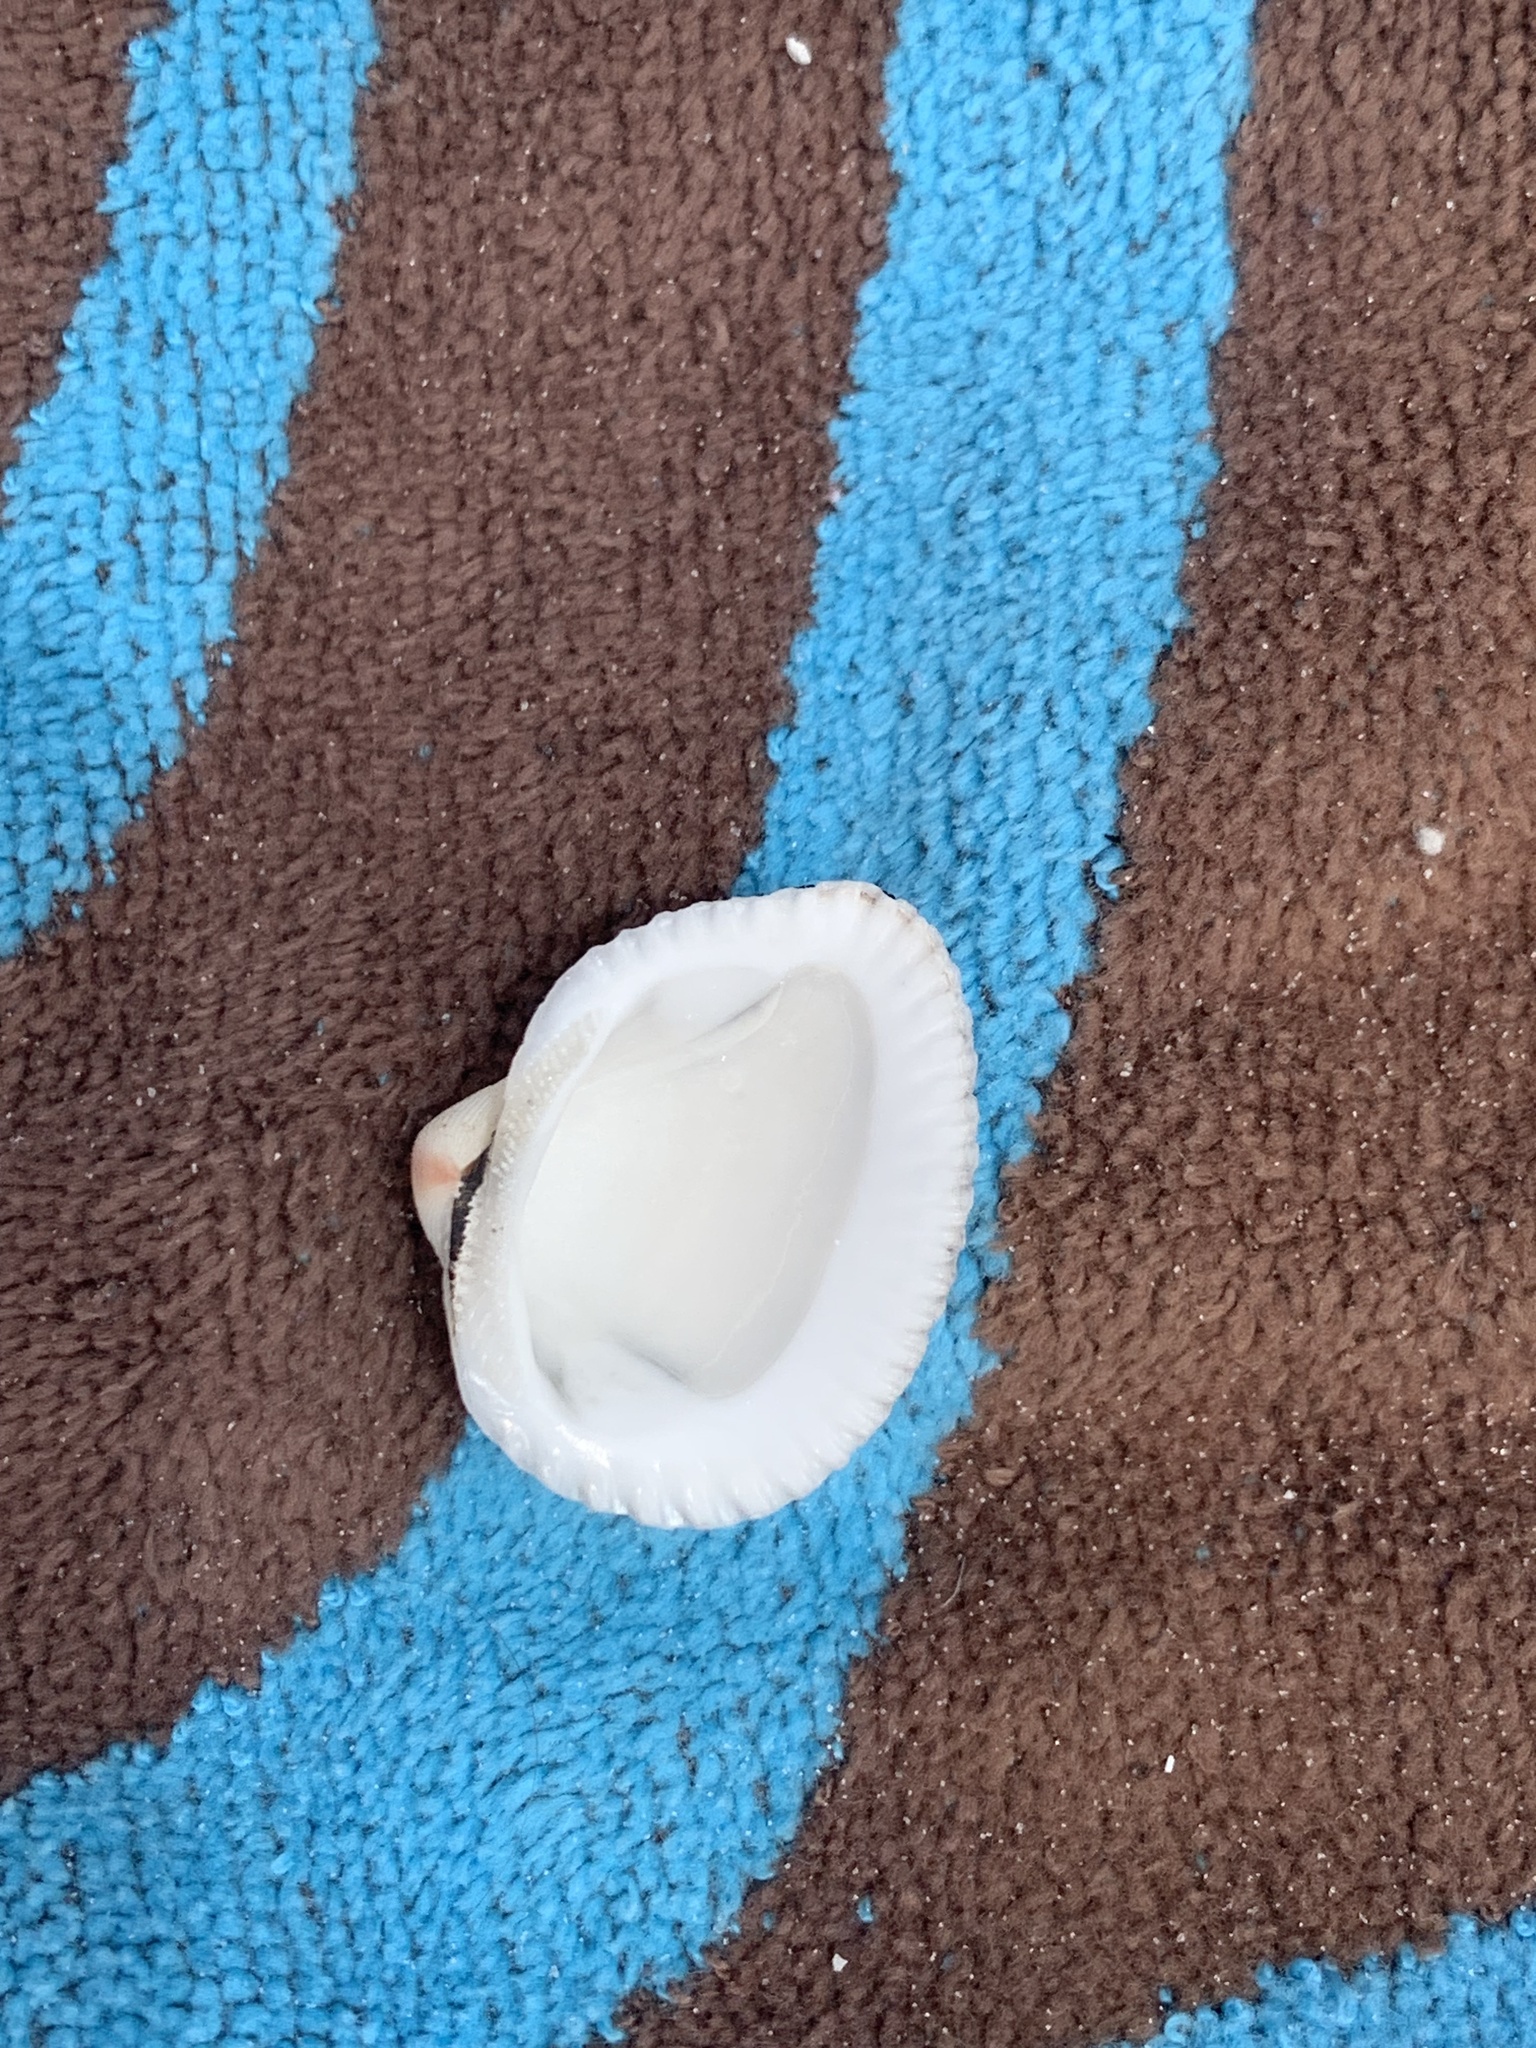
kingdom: Animalia
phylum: Mollusca
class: Bivalvia
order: Arcida
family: Noetiidae
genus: Noetia
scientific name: Noetia ponderosa
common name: Ponderous ark
